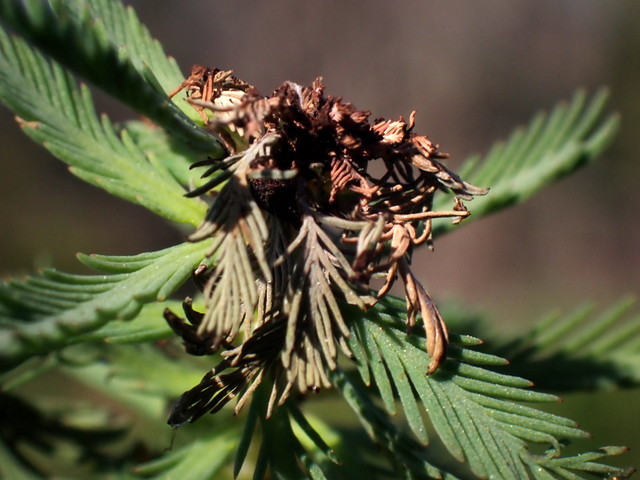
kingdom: Plantae
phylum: Tracheophyta
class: Magnoliopsida
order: Saxifragales
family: Haloragaceae
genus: Myriophyllum
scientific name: Myriophyllum aquaticum
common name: Parrot's feather
